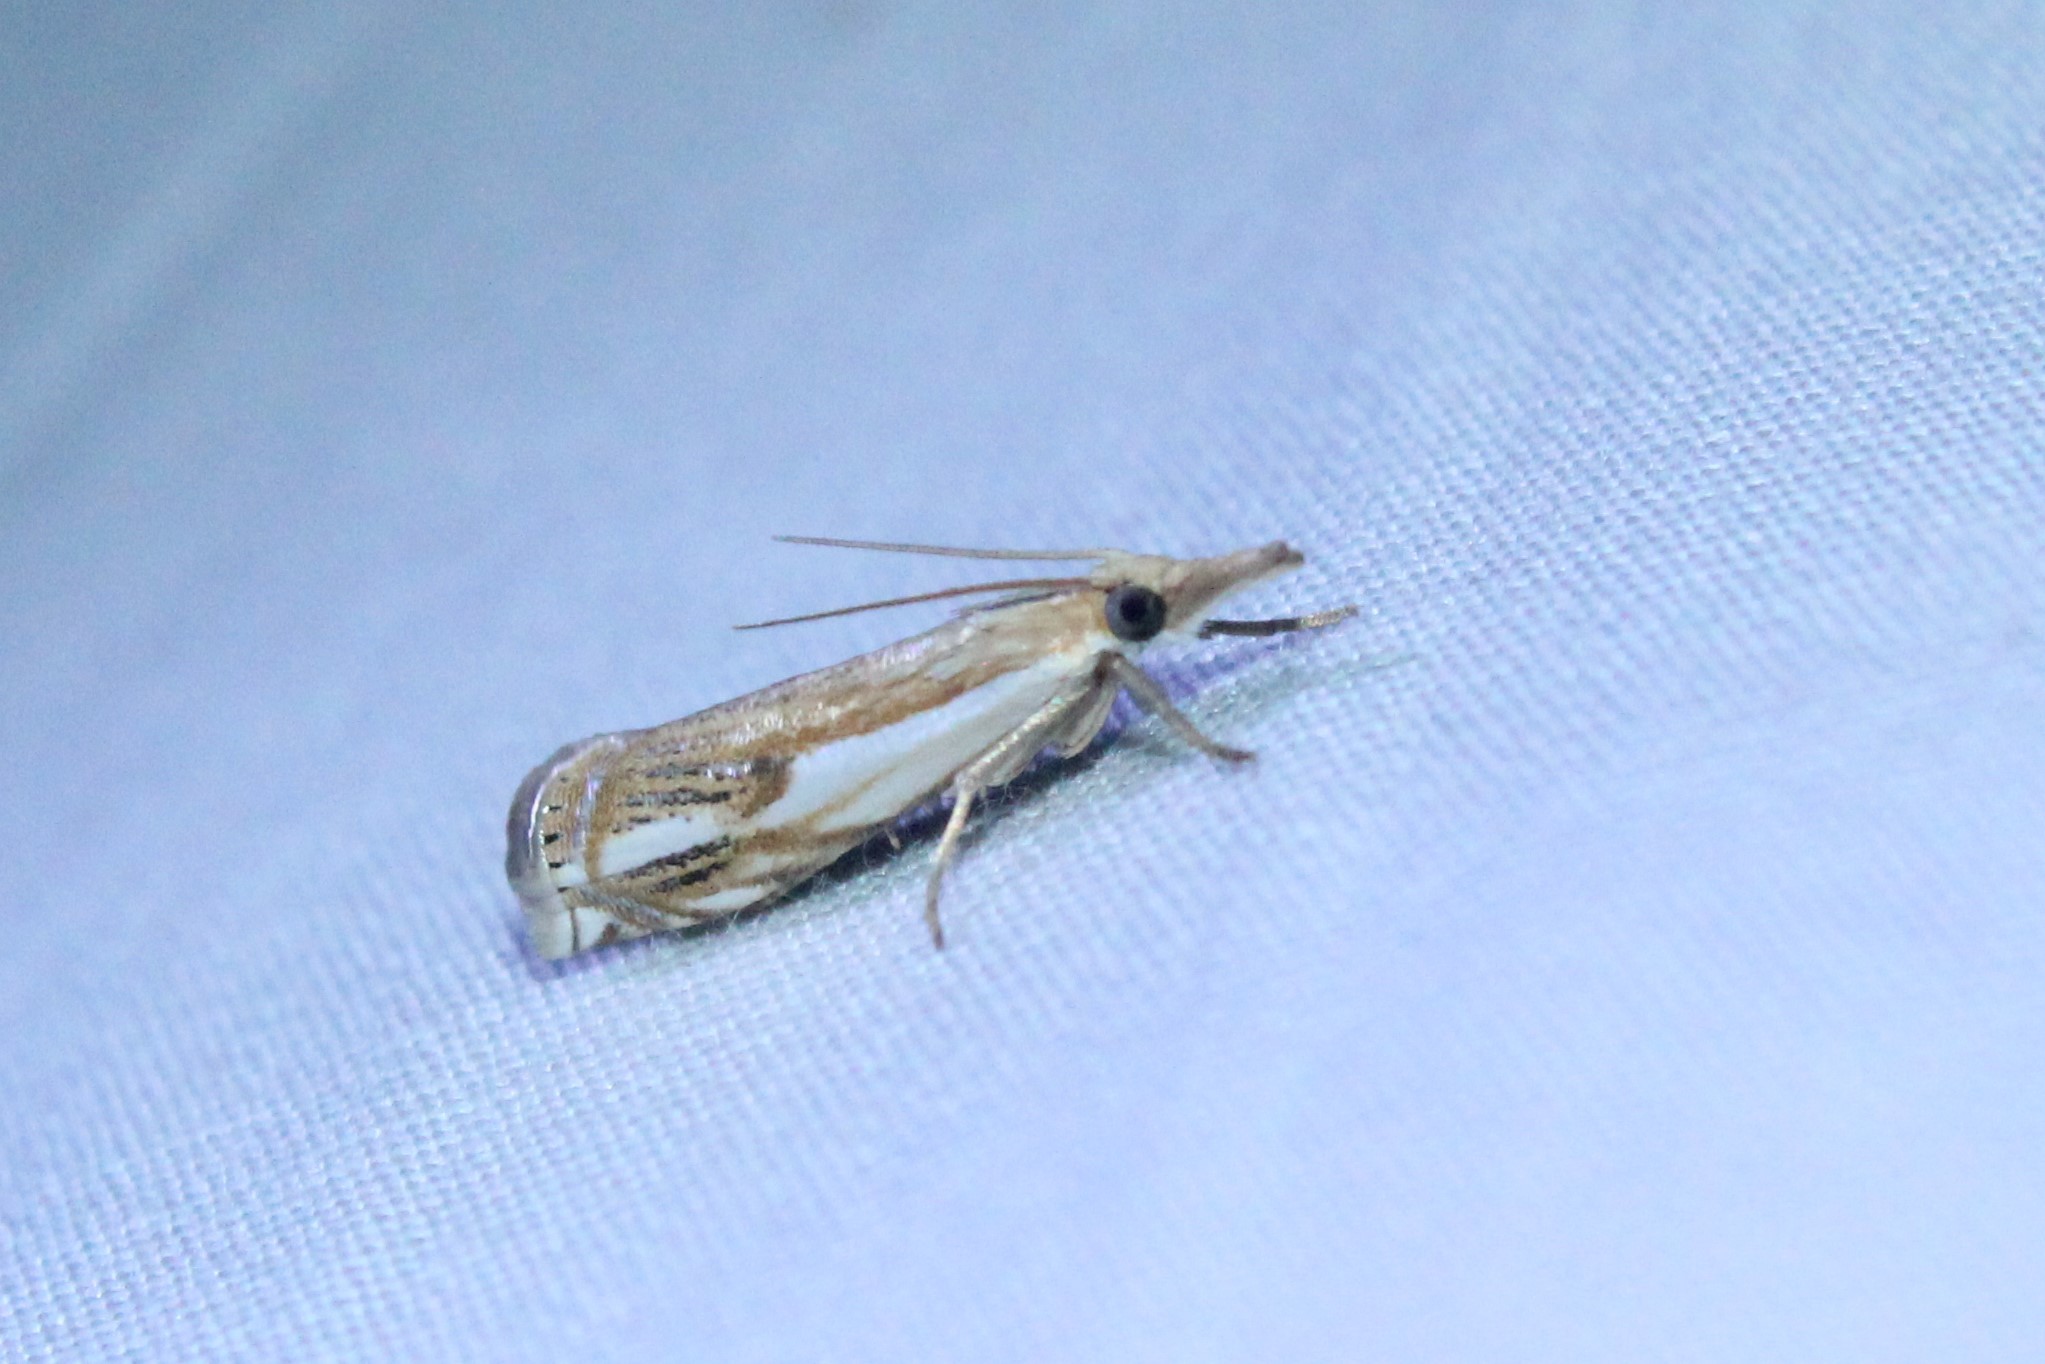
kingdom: Animalia
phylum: Arthropoda
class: Insecta
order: Lepidoptera
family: Crambidae
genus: Crambus
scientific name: Crambus agitatellus
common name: Double-banded grass-veneer
